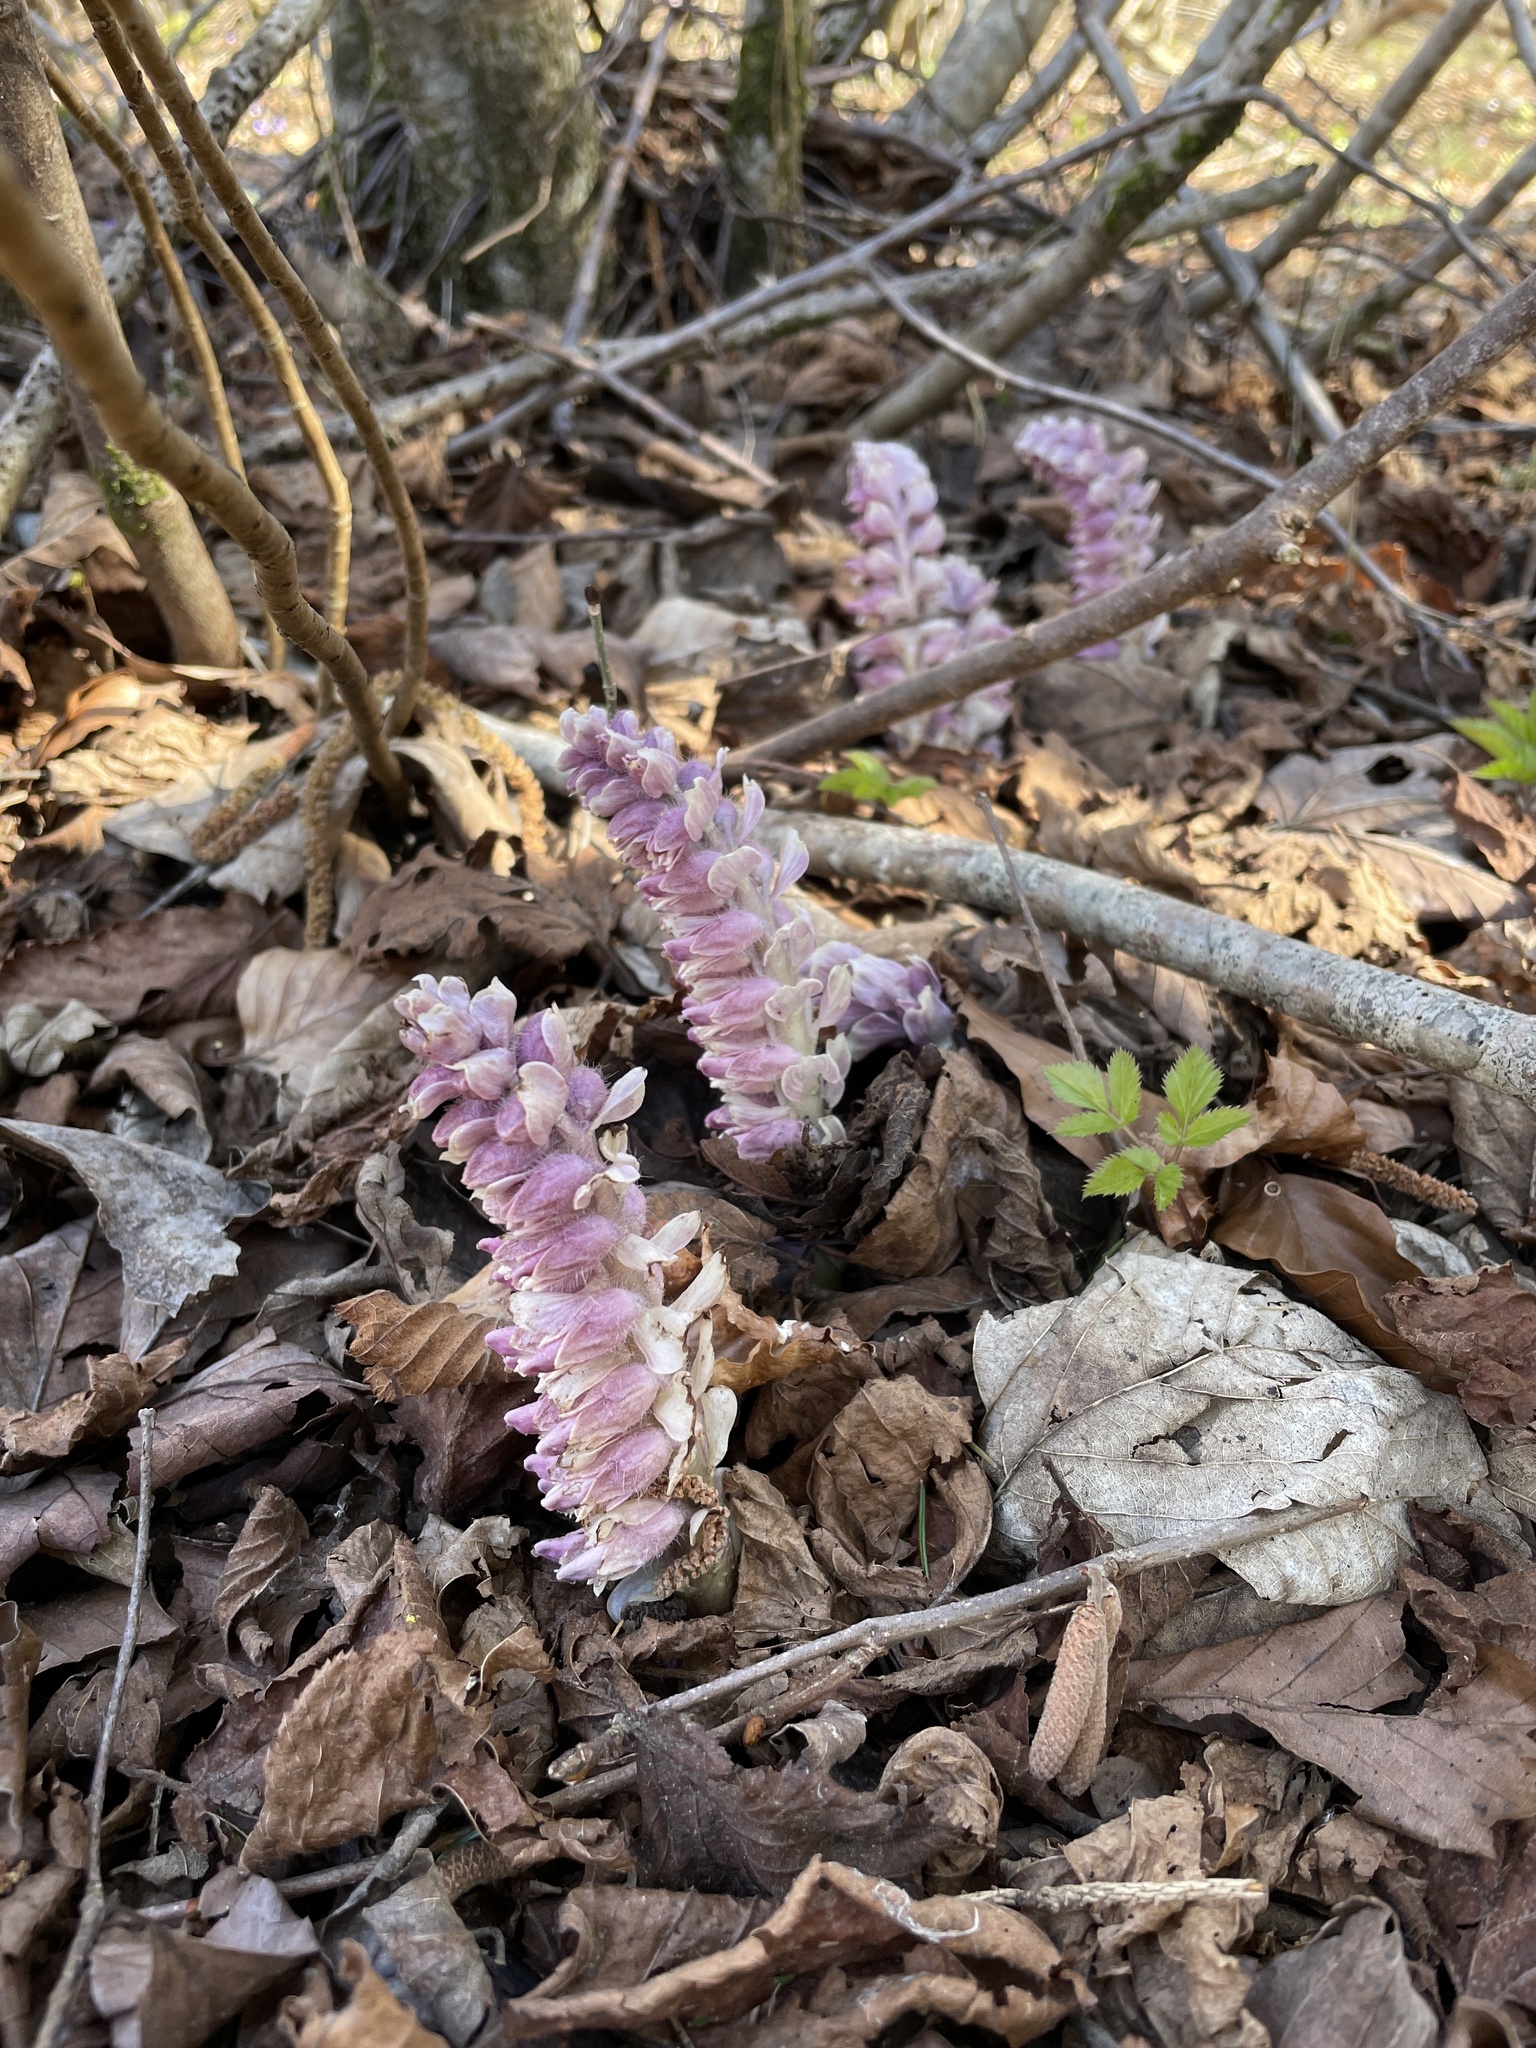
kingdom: Plantae
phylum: Tracheophyta
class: Magnoliopsida
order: Lamiales
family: Orobanchaceae
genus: Lathraea
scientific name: Lathraea squamaria
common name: Toothwort
